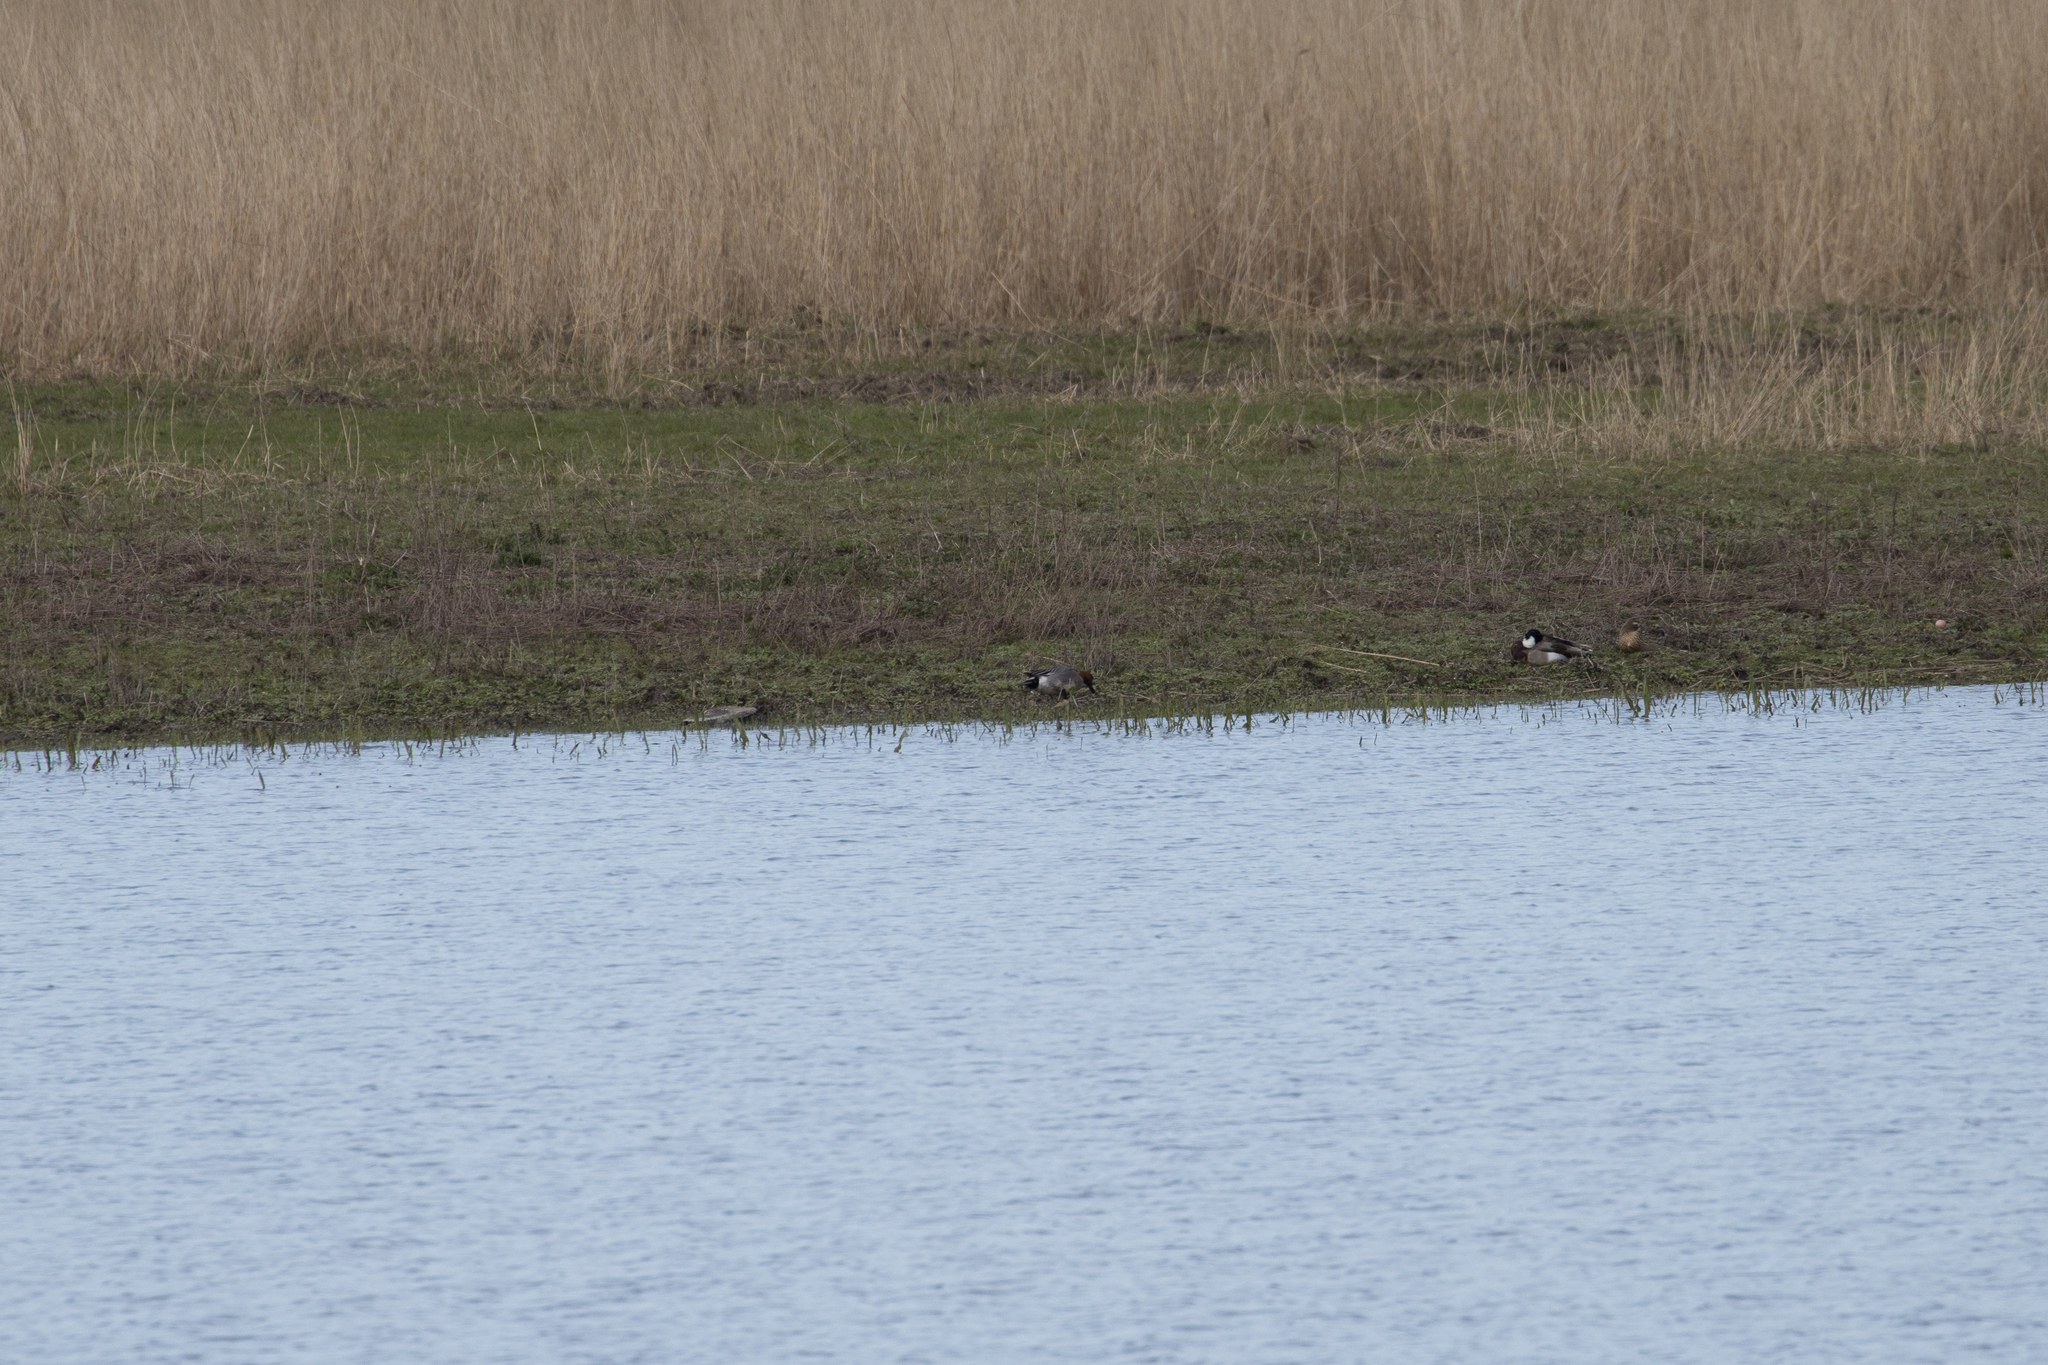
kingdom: Animalia
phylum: Chordata
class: Aves
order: Anseriformes
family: Anatidae
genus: Mareca
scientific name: Mareca penelope
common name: Eurasian wigeon
